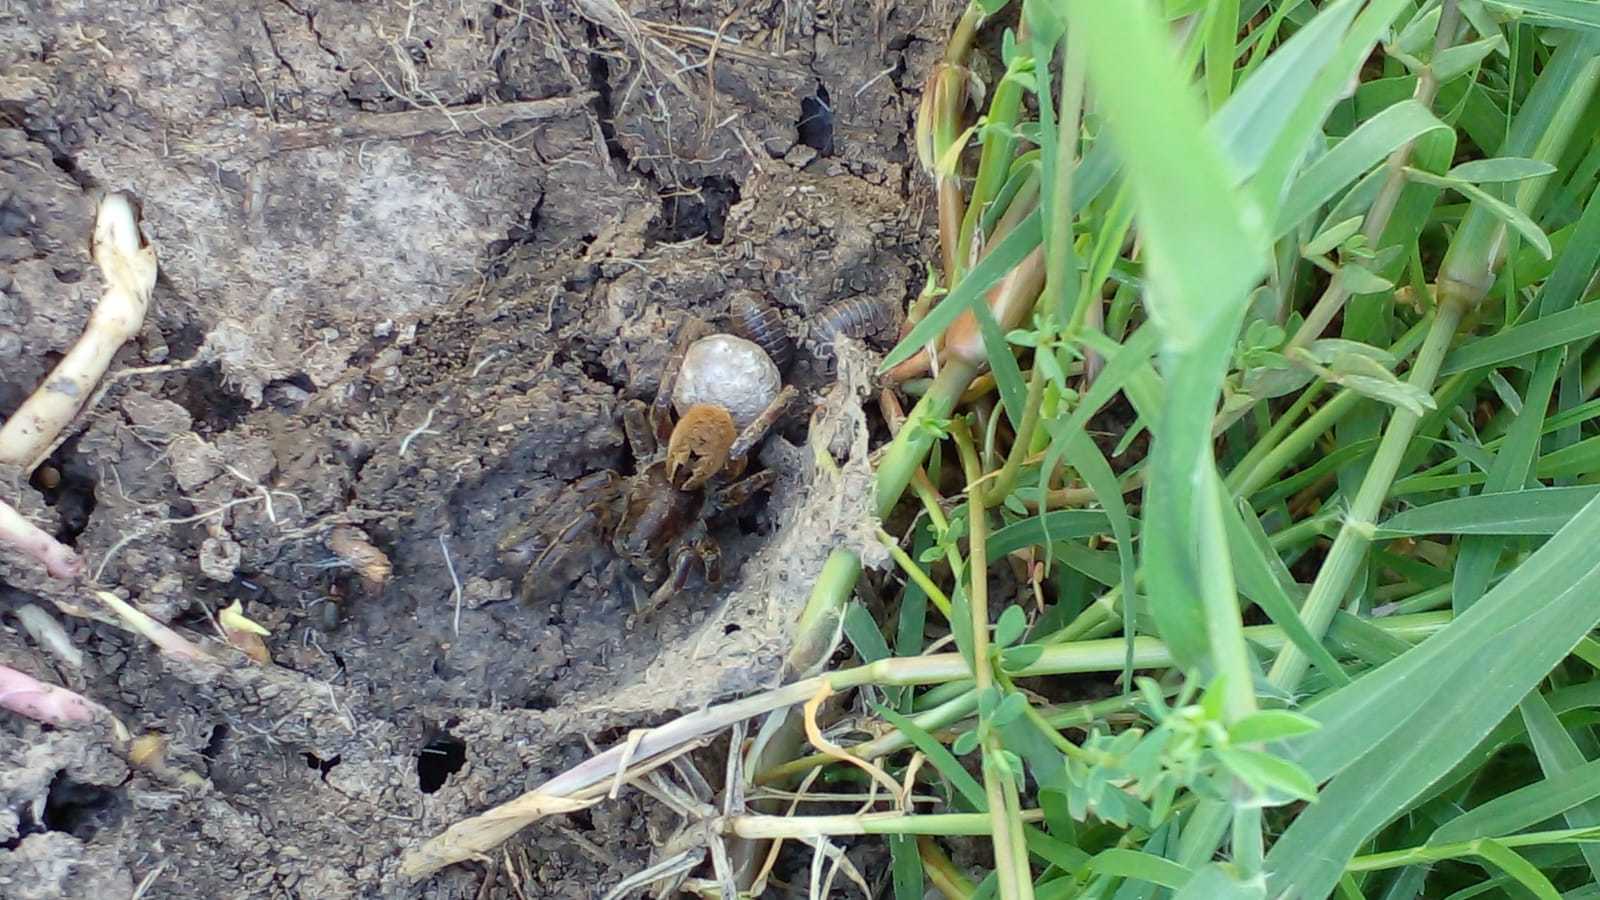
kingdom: Animalia
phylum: Arthropoda
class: Arachnida
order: Araneae
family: Lycosidae
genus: Lycosa
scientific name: Lycosa erythrognatha
